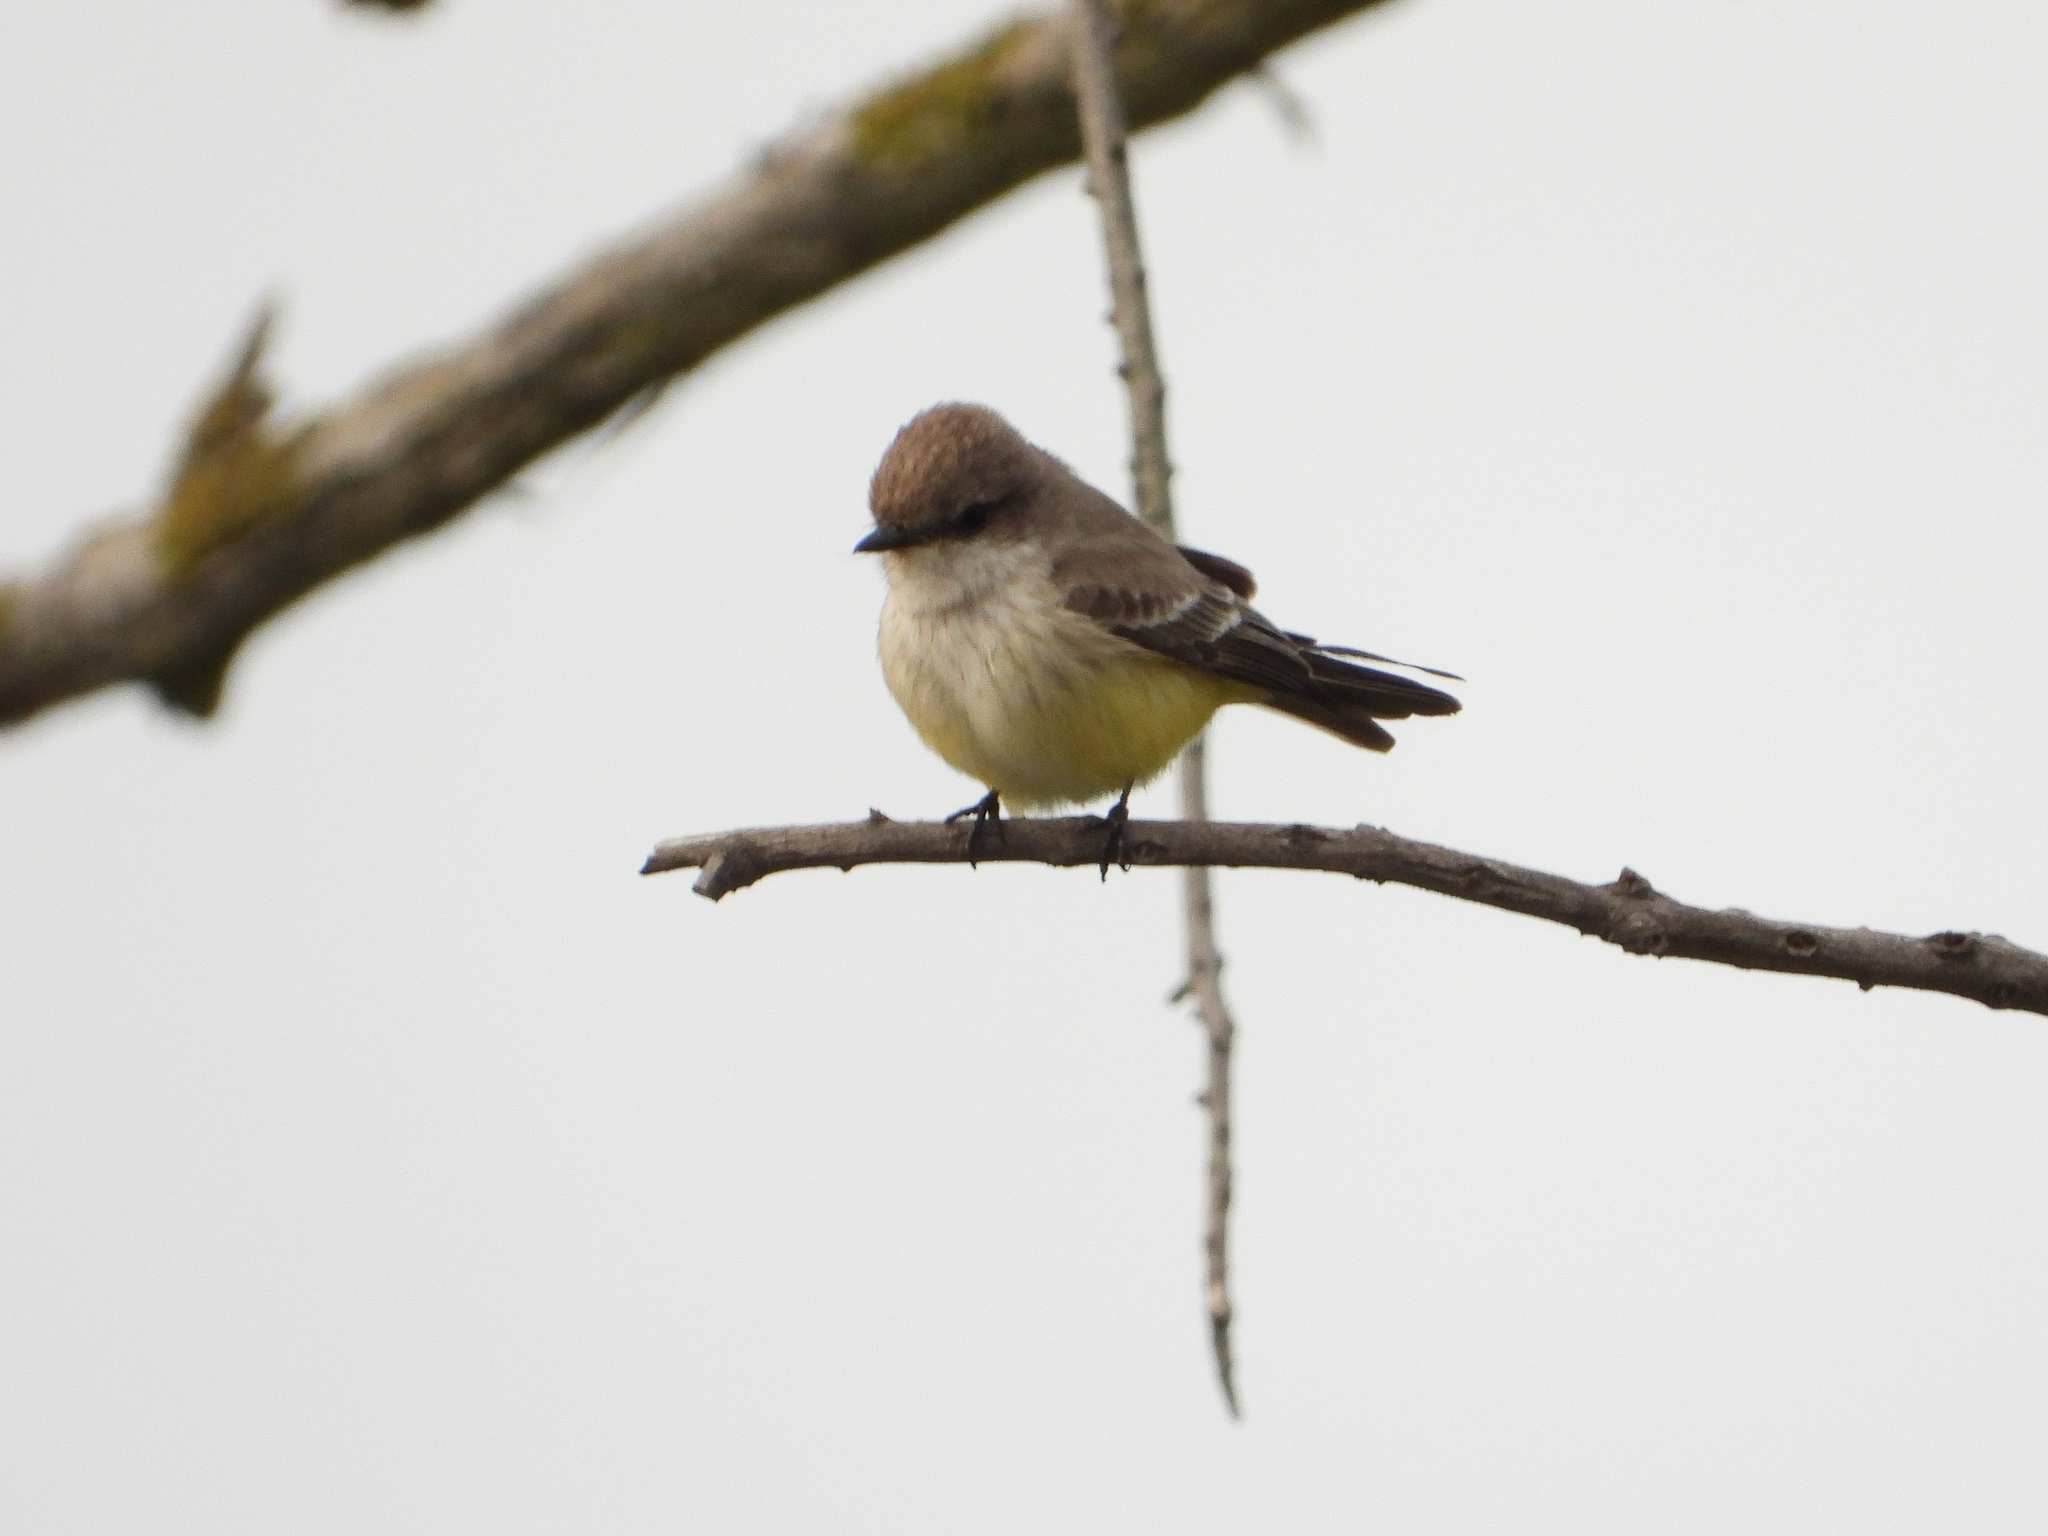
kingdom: Animalia
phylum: Chordata
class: Aves
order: Passeriformes
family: Tyrannidae
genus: Pyrocephalus
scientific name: Pyrocephalus rubinus
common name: Vermilion flycatcher
